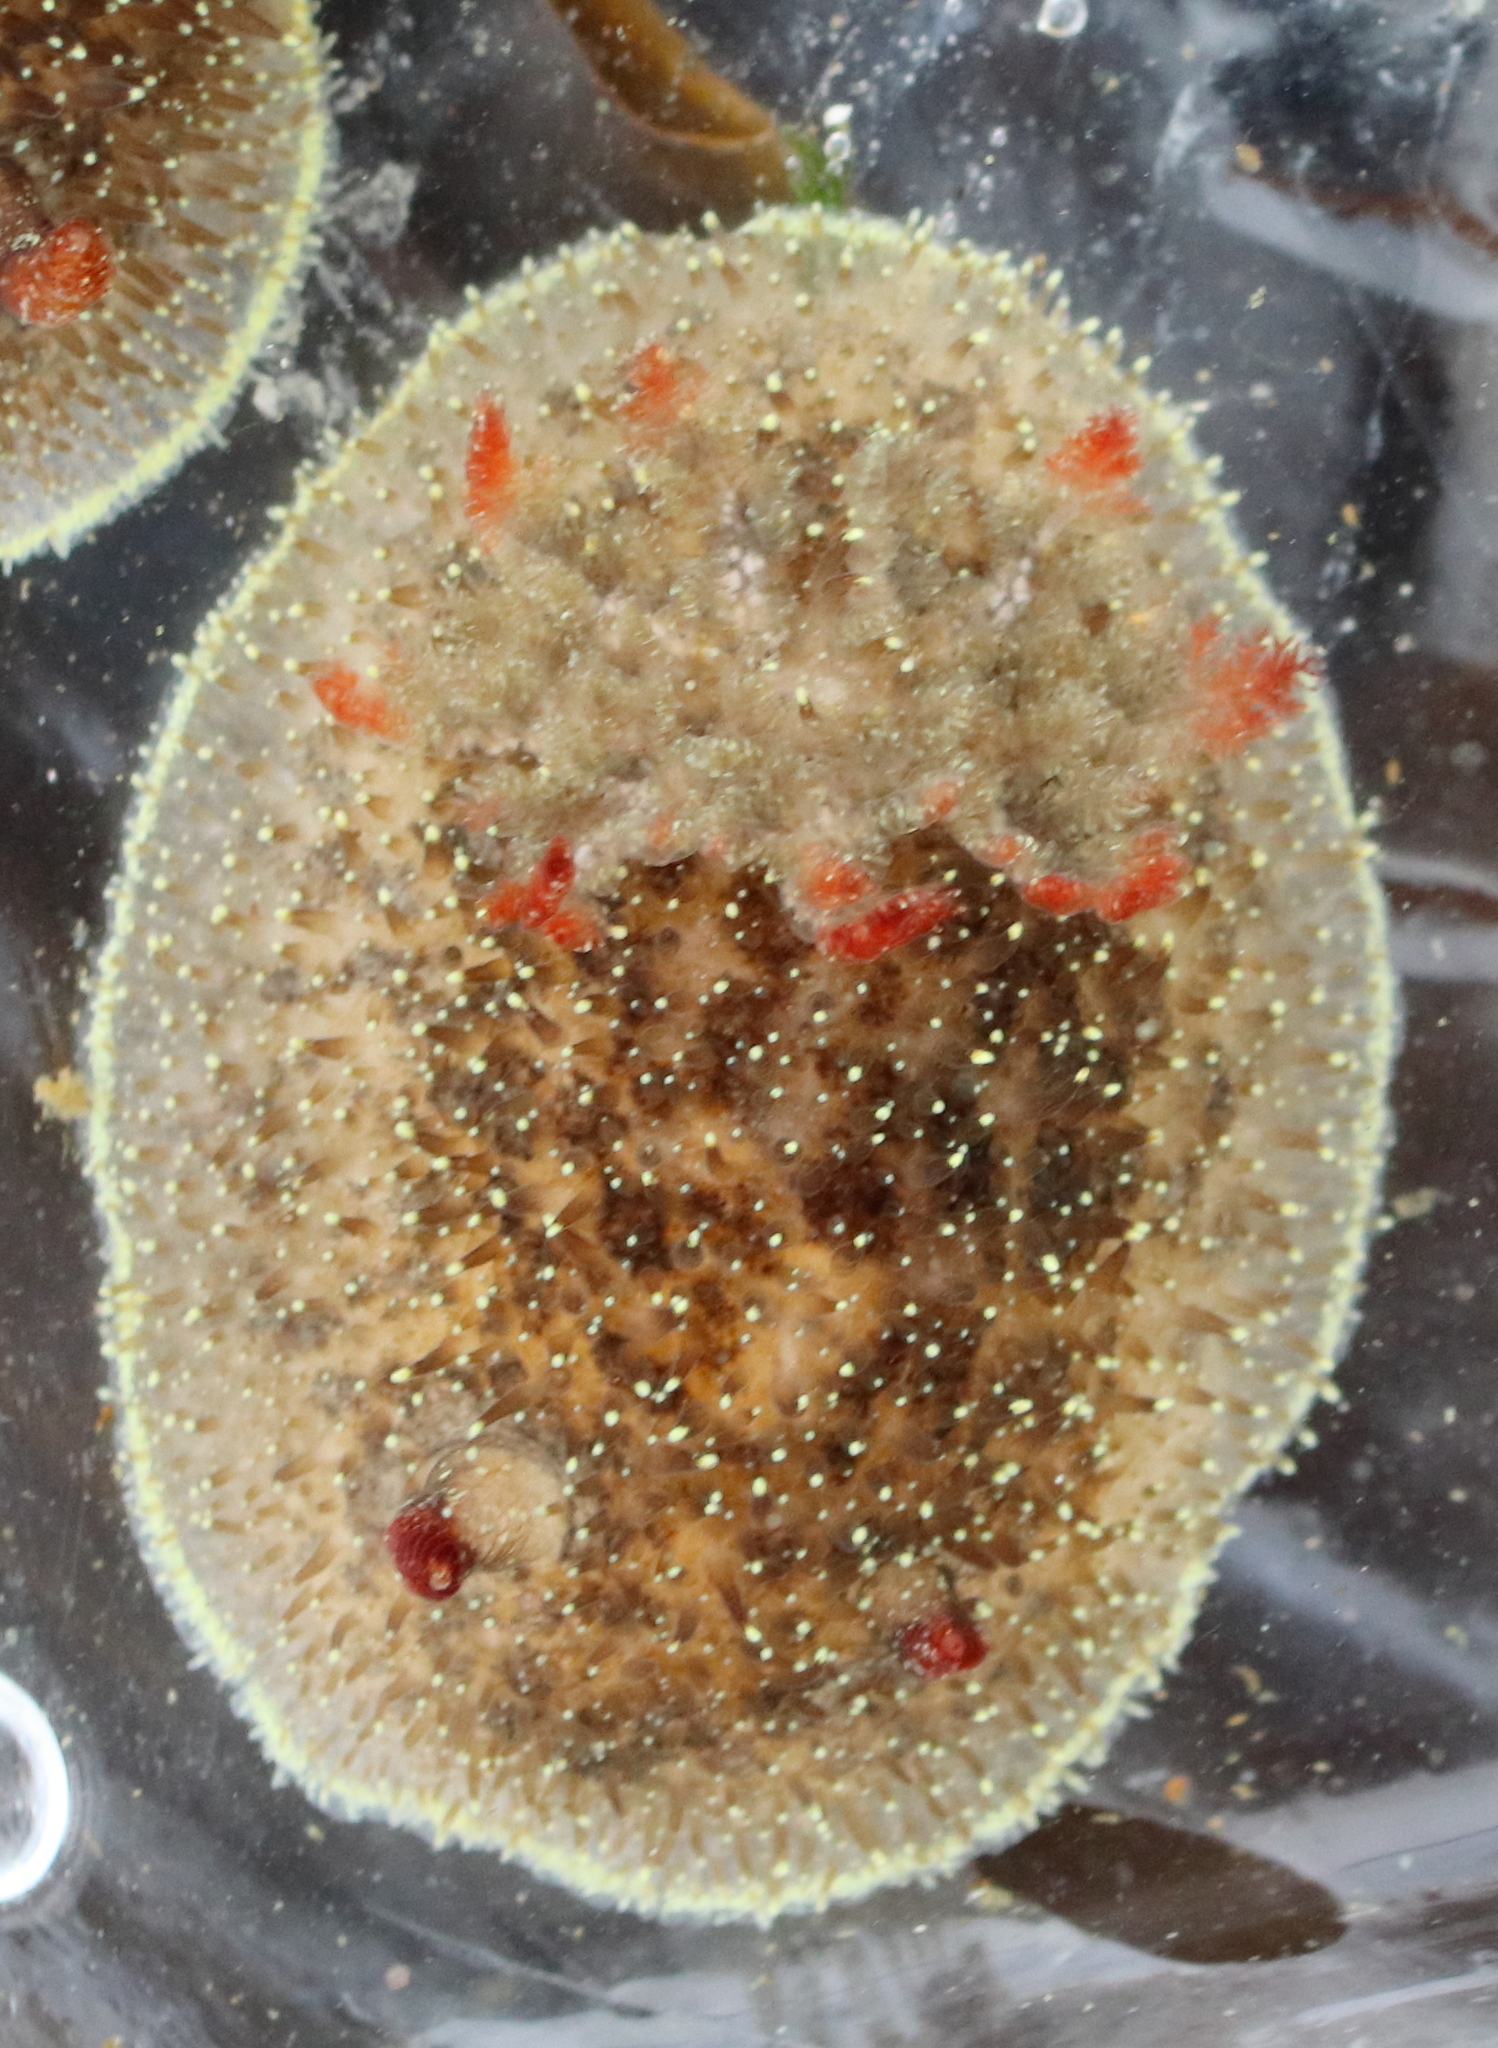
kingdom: Animalia
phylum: Mollusca
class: Gastropoda
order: Nudibranchia
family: Onchidorididae
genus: Acanthodoris
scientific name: Acanthodoris nanaimoensis
